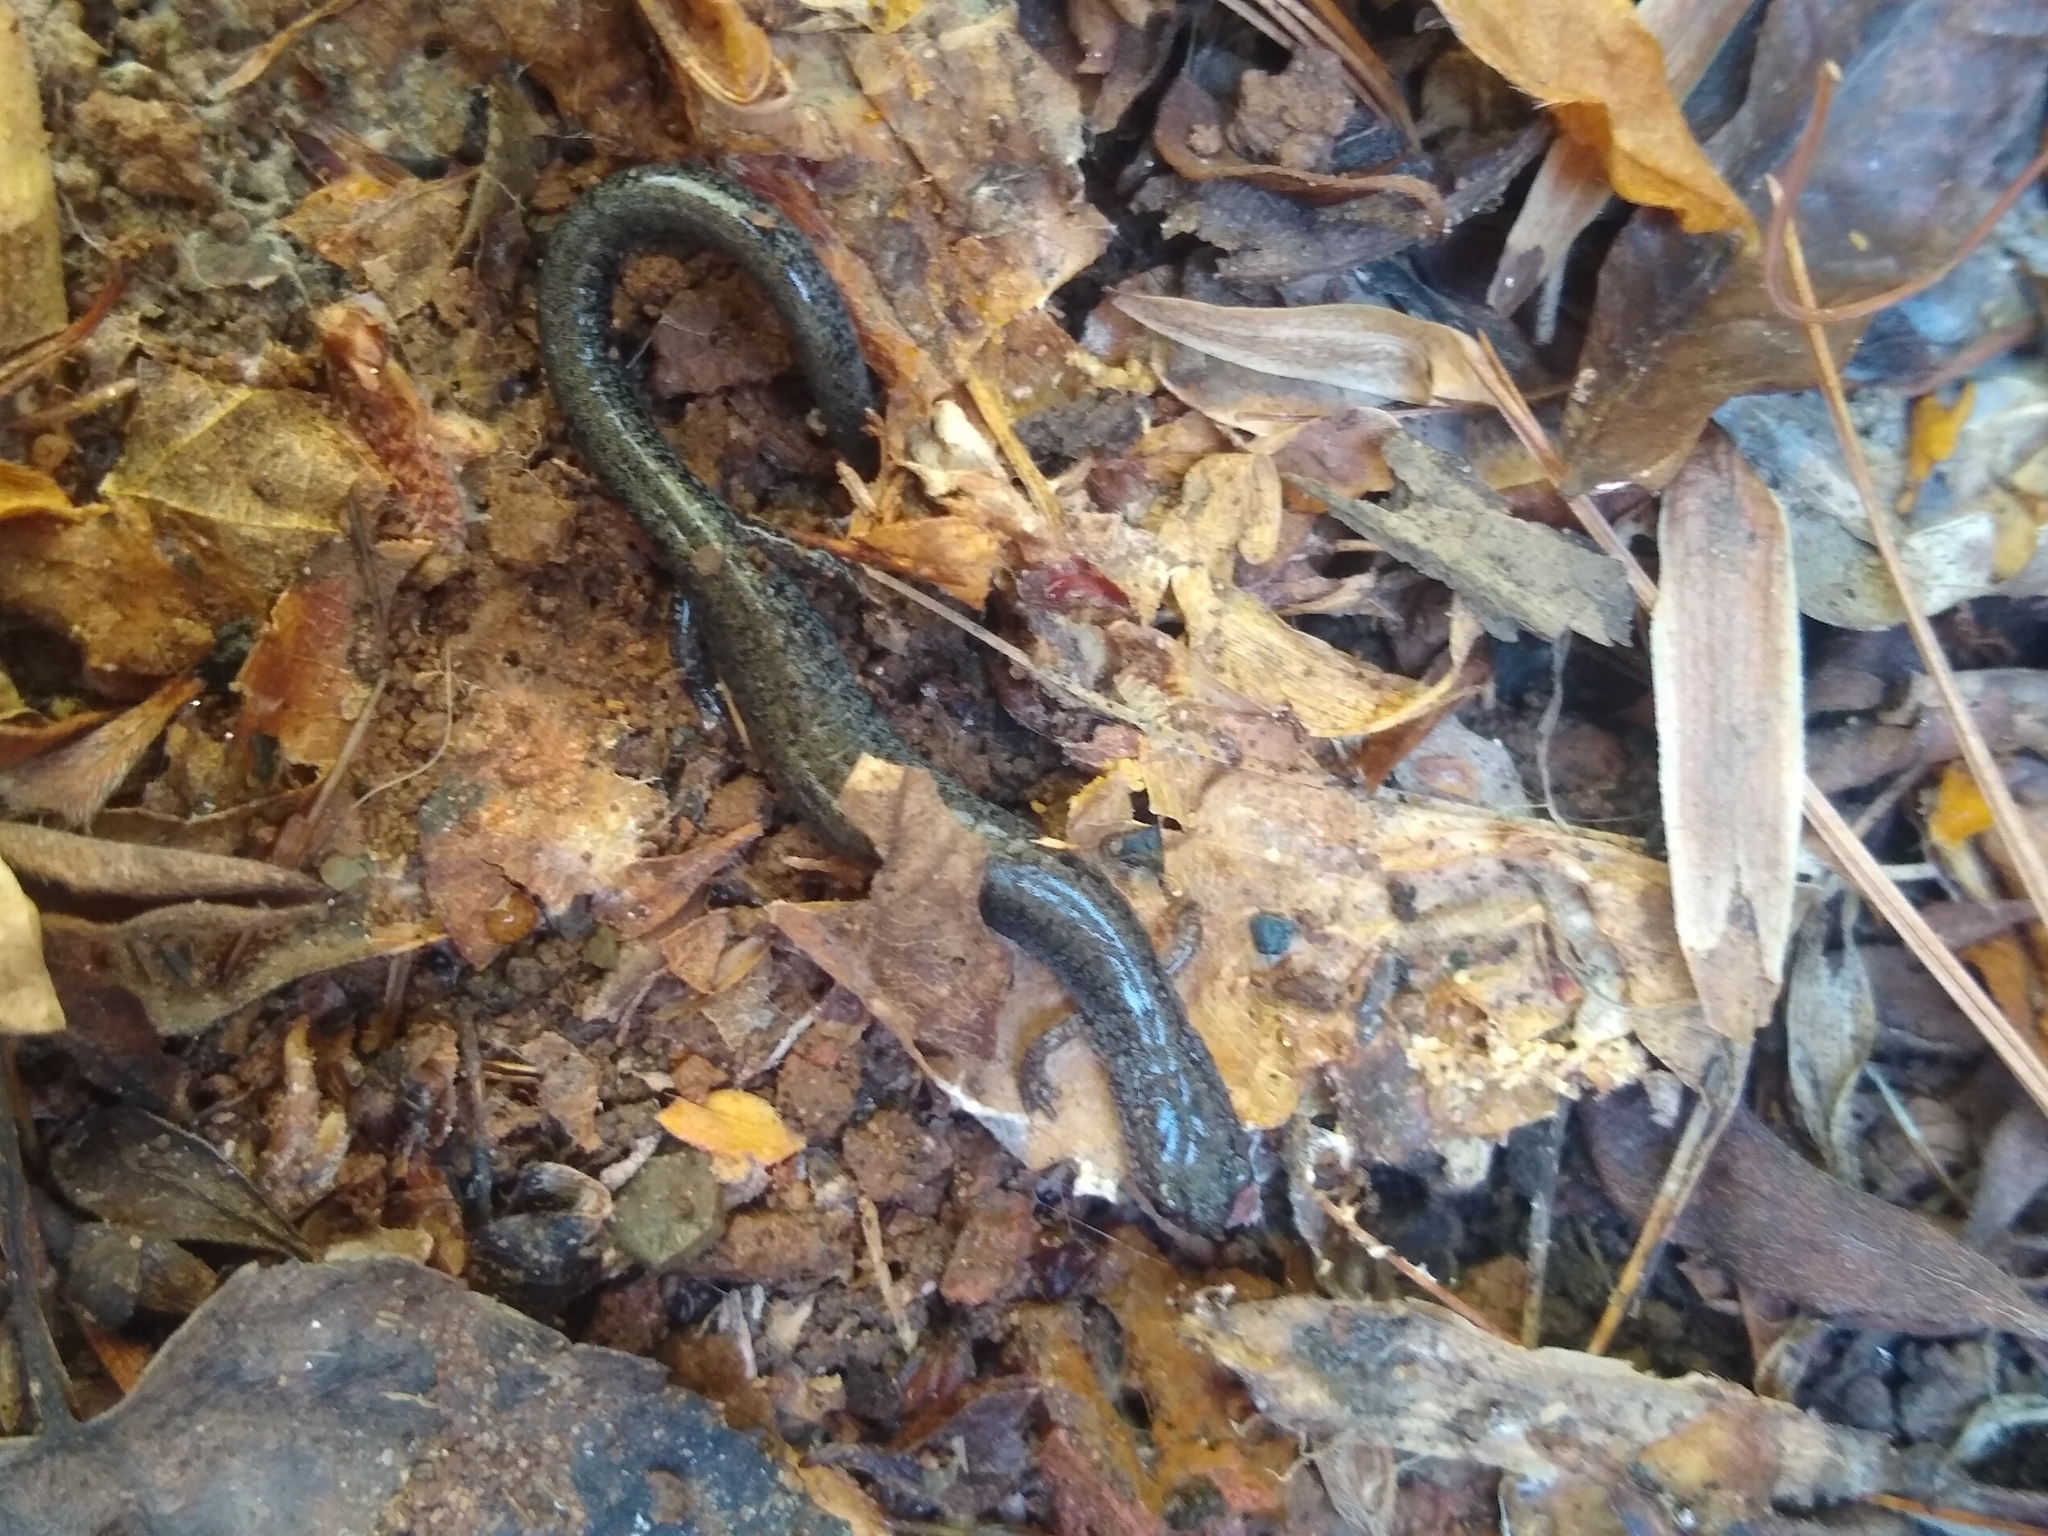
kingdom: Animalia
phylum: Chordata
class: Amphibia
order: Caudata
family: Plethodontidae
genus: Plethodon
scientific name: Plethodon cinereus
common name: Redback salamander
